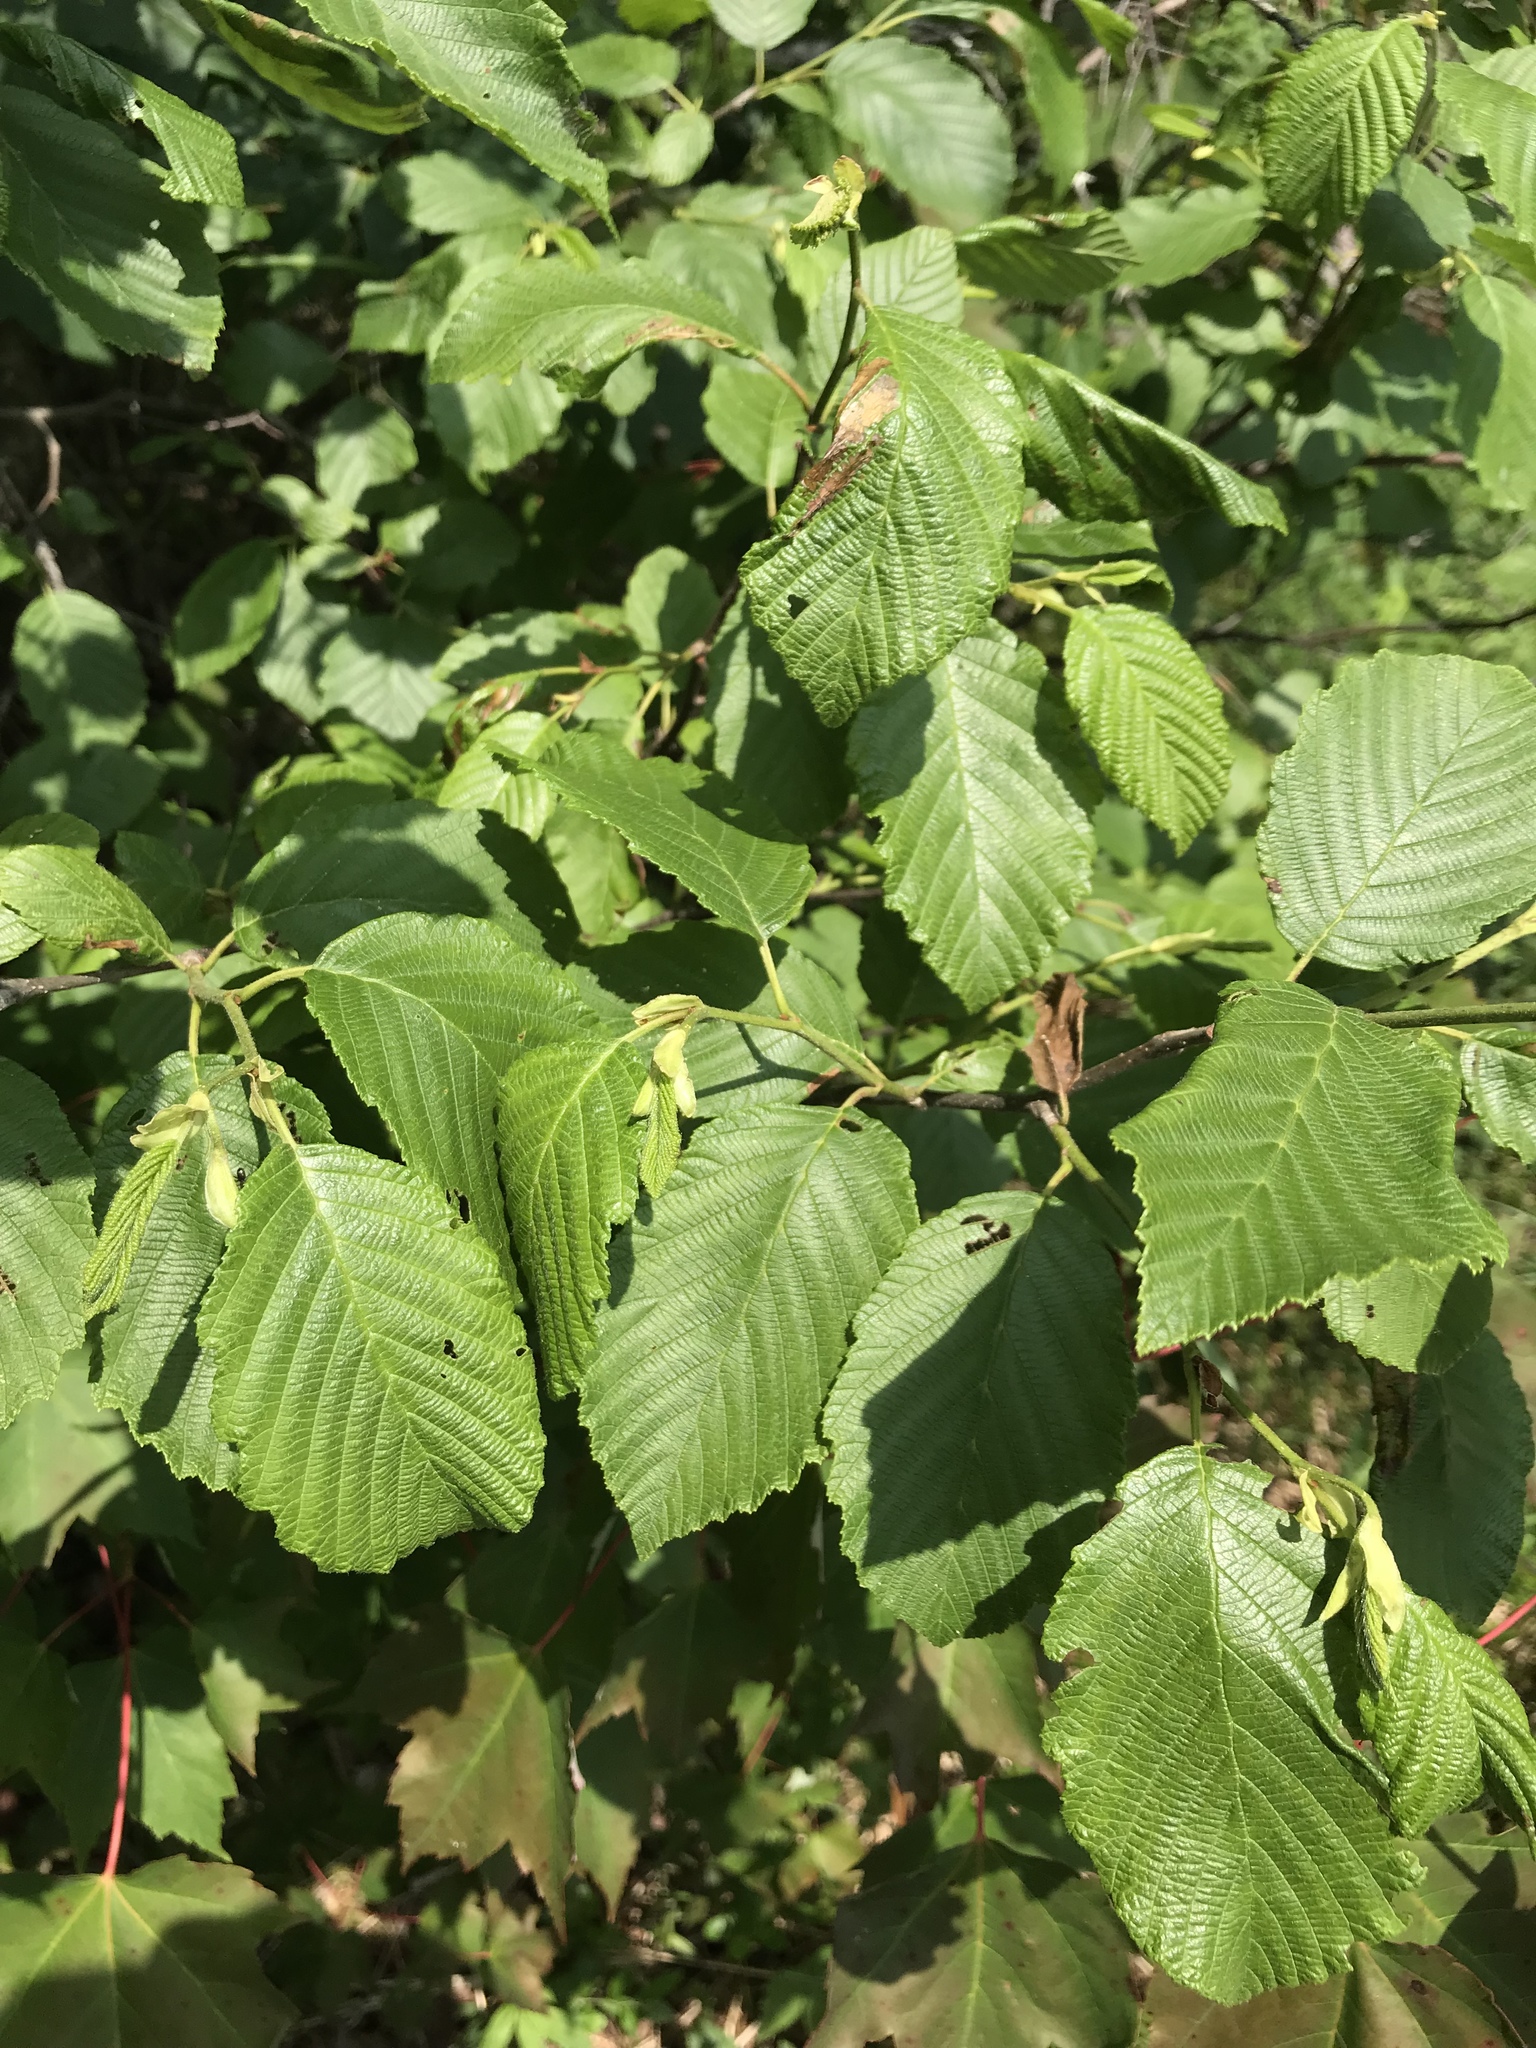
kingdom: Plantae
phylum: Tracheophyta
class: Magnoliopsida
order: Fagales
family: Betulaceae
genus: Alnus
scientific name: Alnus incana
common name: Grey alder
